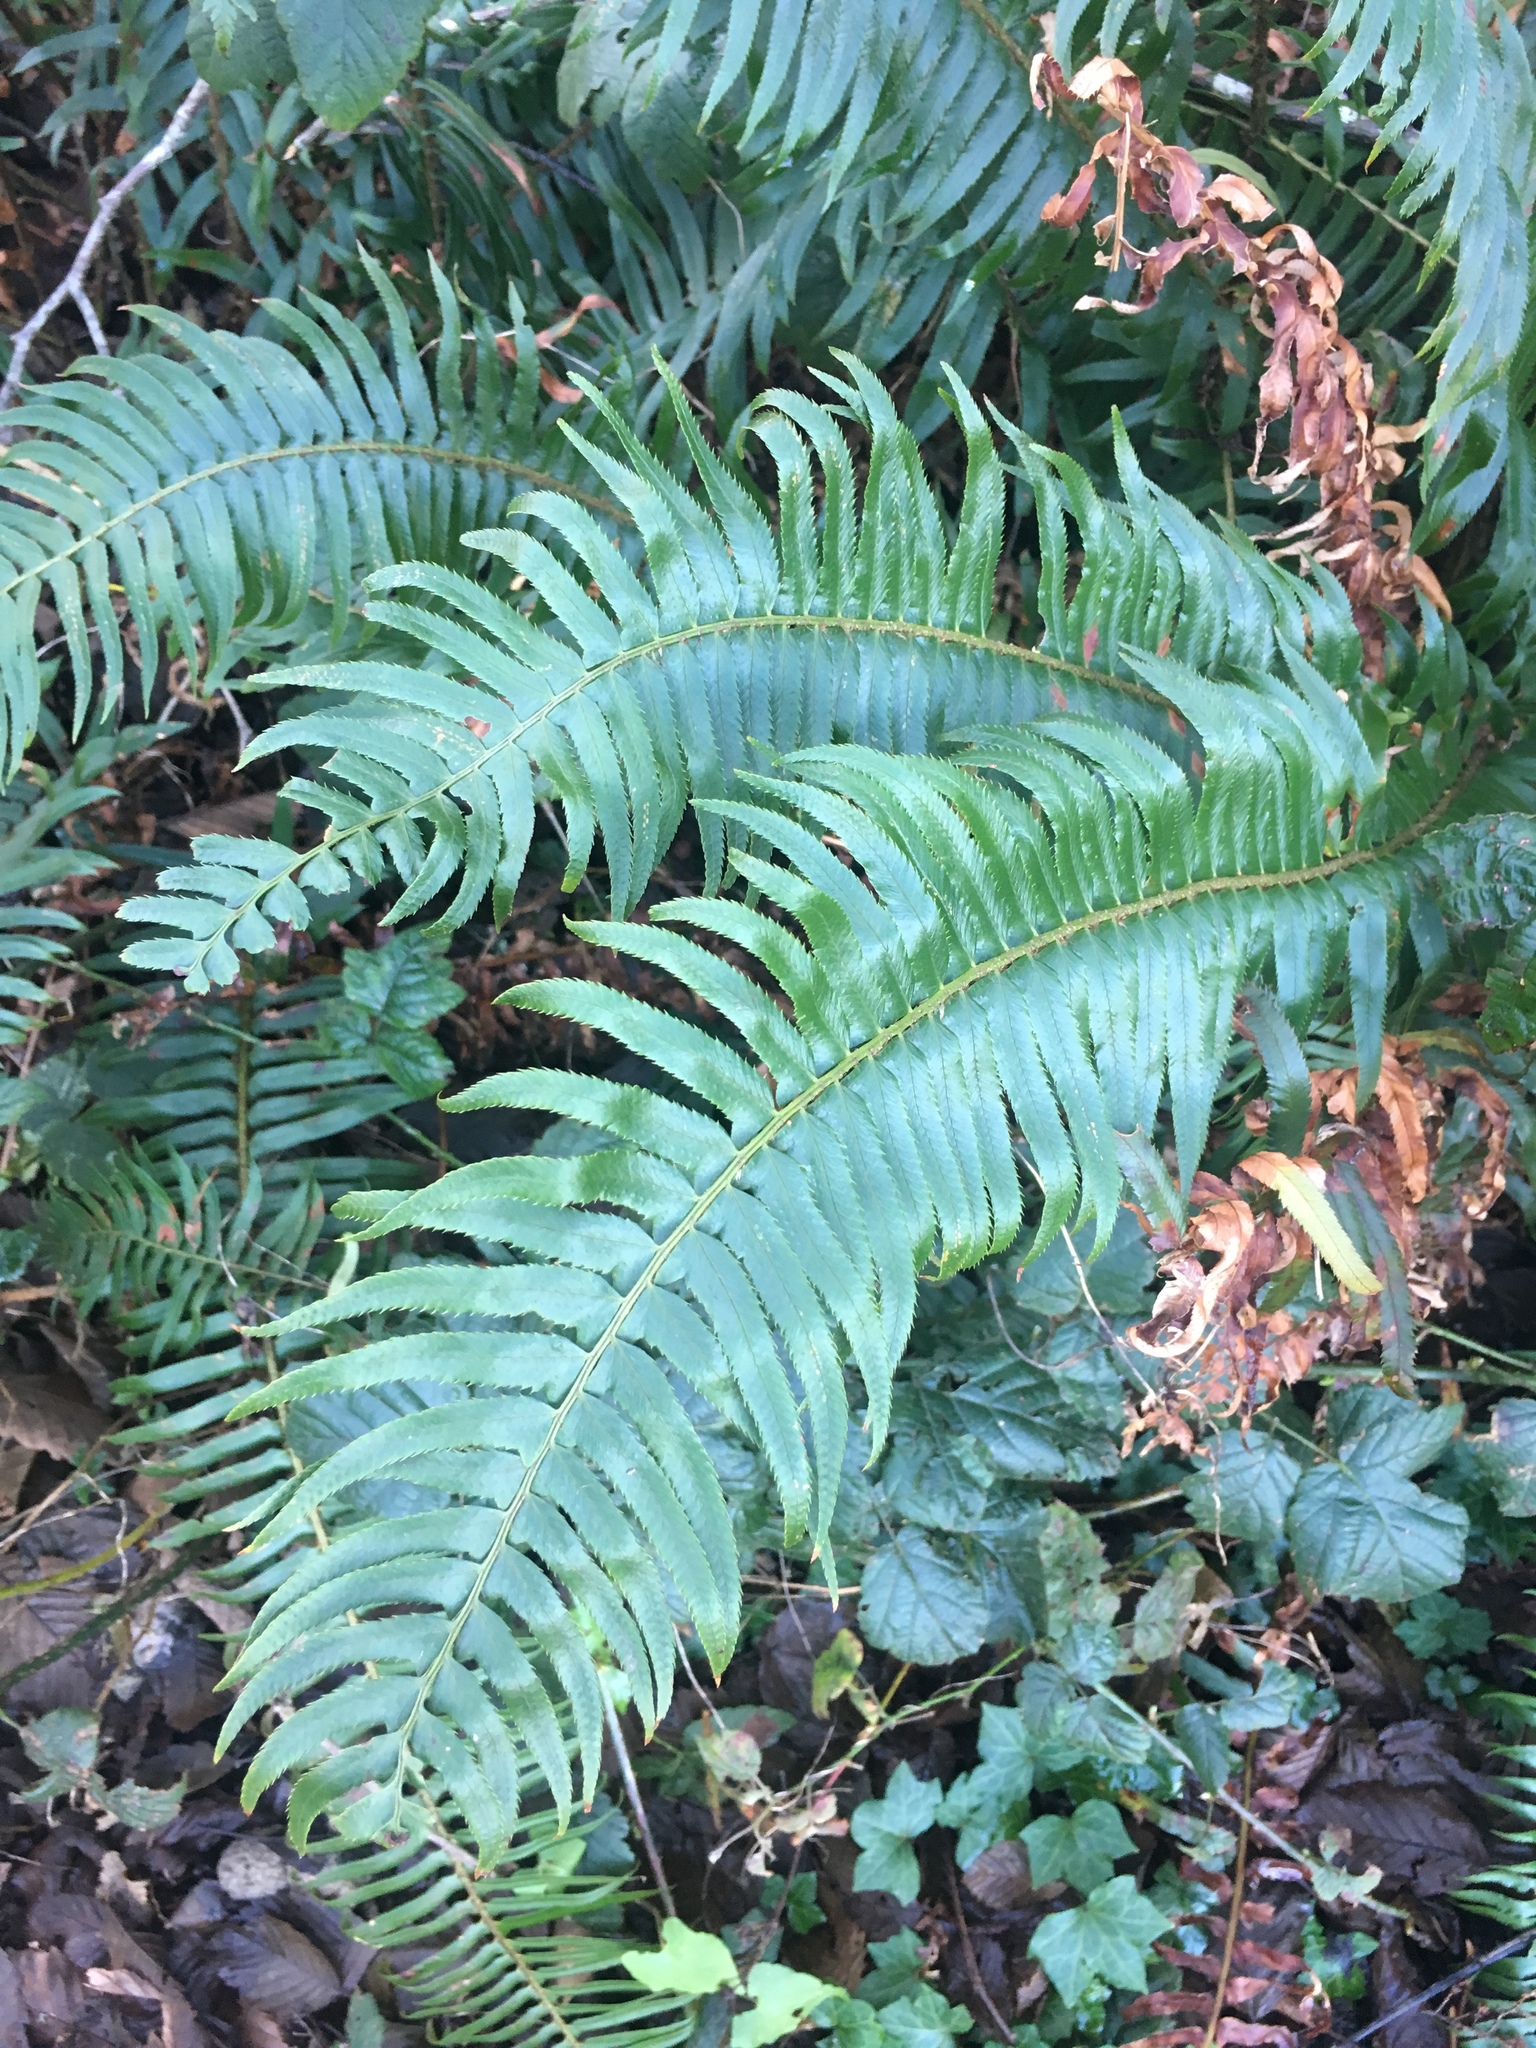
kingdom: Plantae
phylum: Tracheophyta
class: Polypodiopsida
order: Polypodiales
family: Dryopteridaceae
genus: Polystichum
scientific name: Polystichum munitum
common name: Western sword-fern
